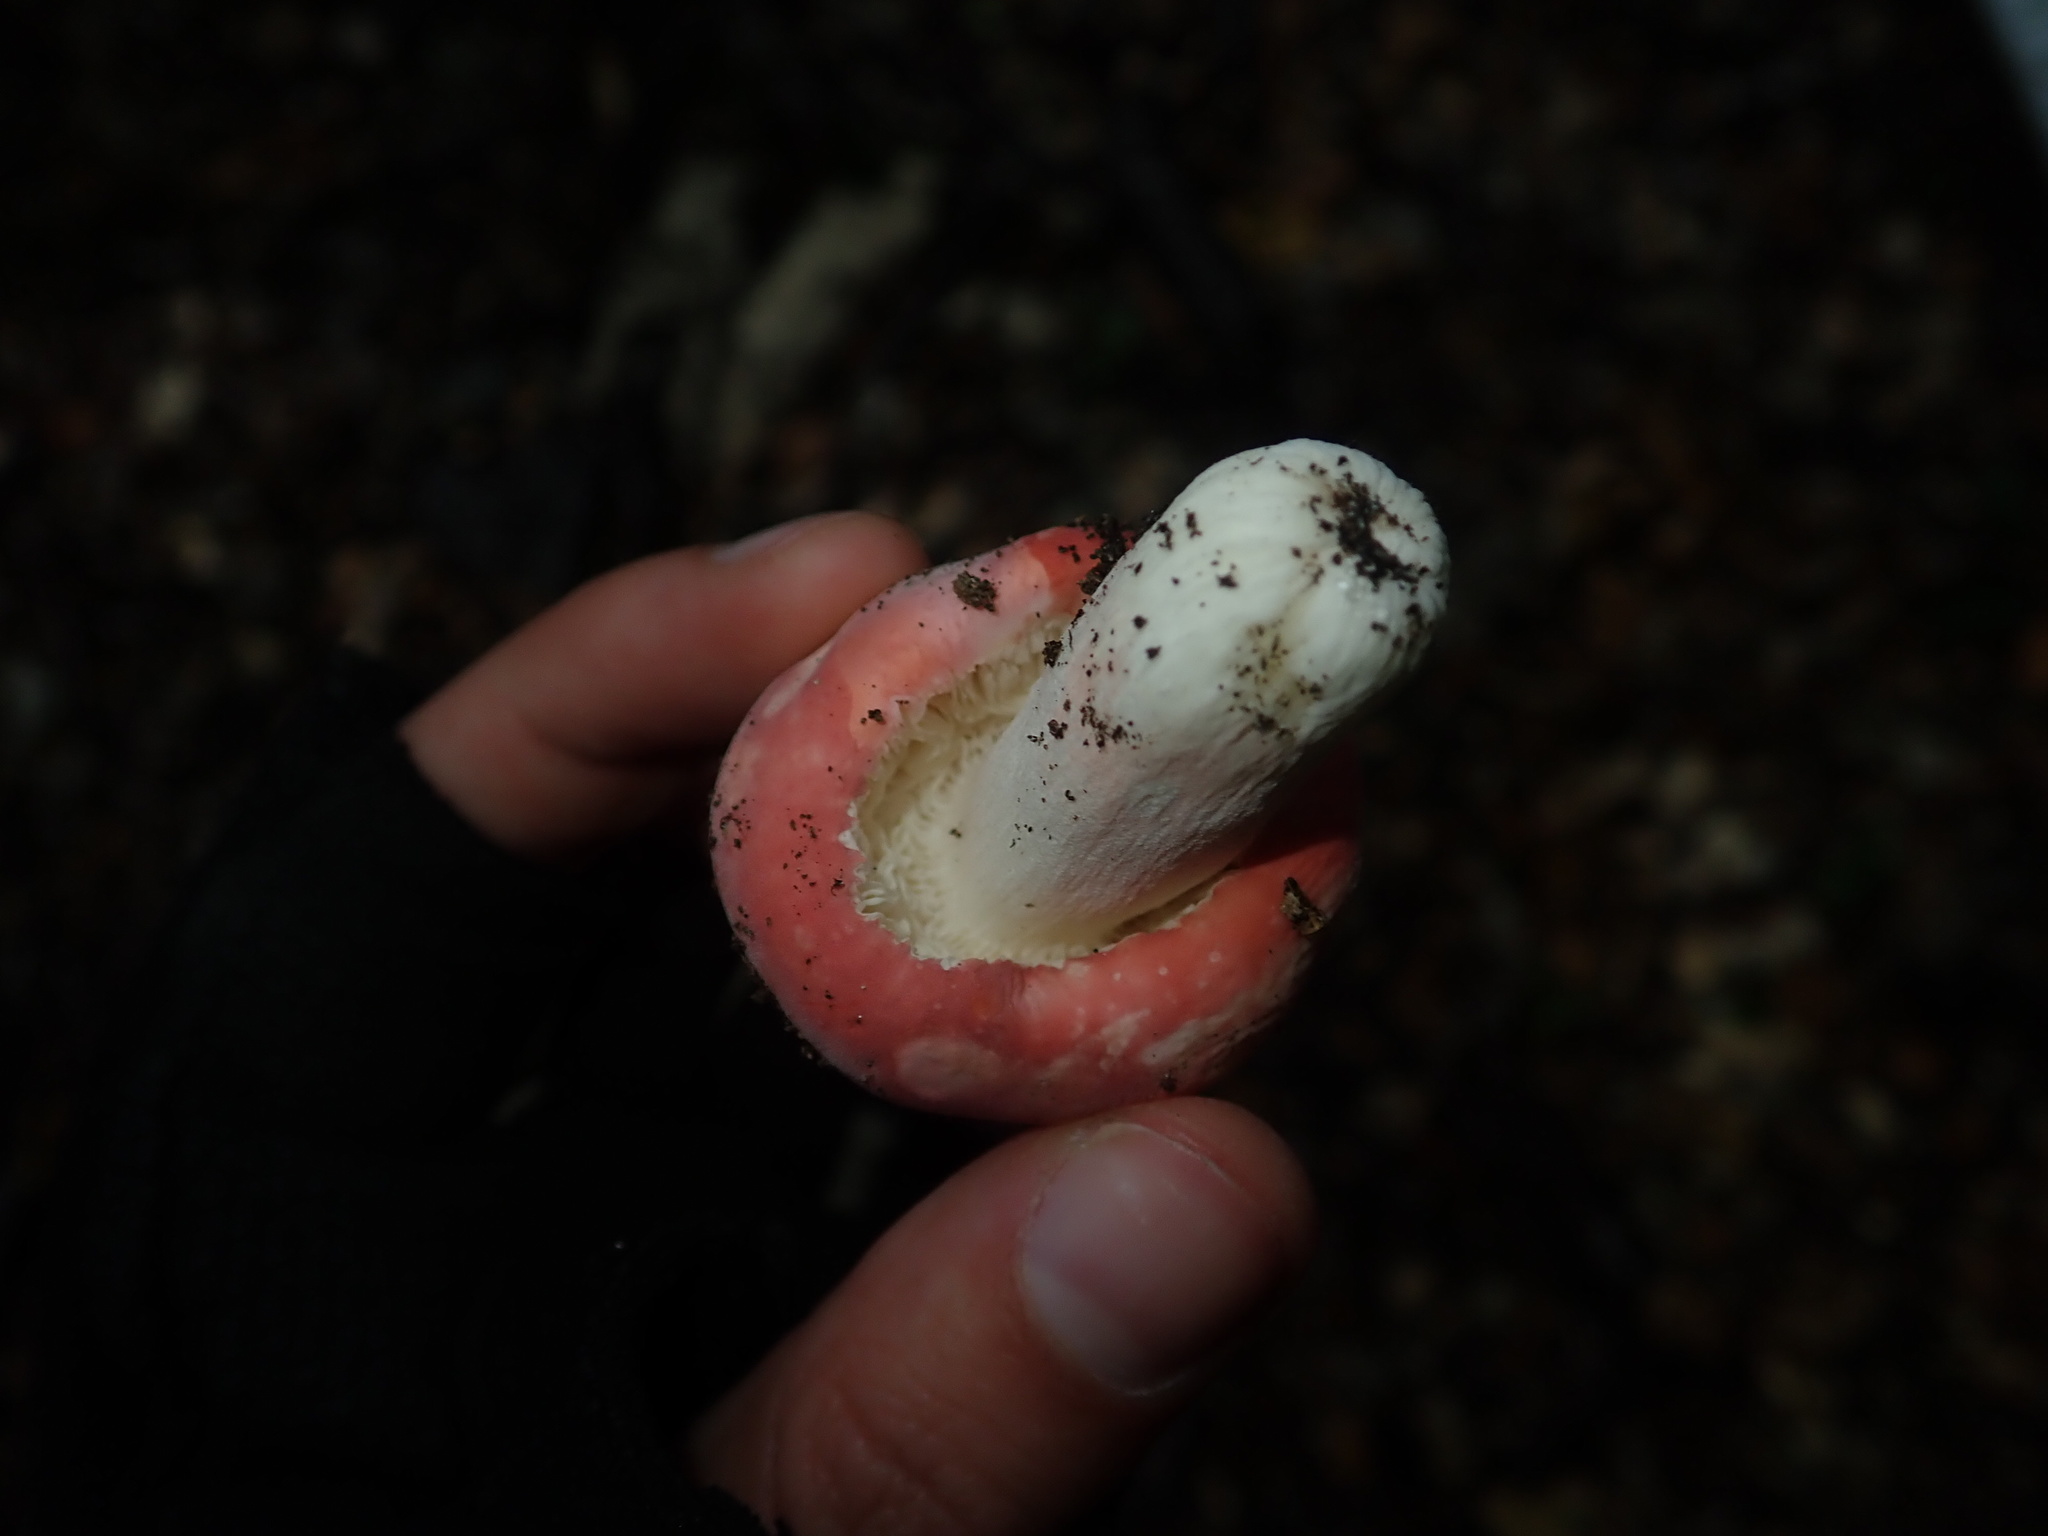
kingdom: Fungi
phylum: Basidiomycota
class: Agaricomycetes
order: Russulales
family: Russulaceae
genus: Russula
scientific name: Russula kermesina
